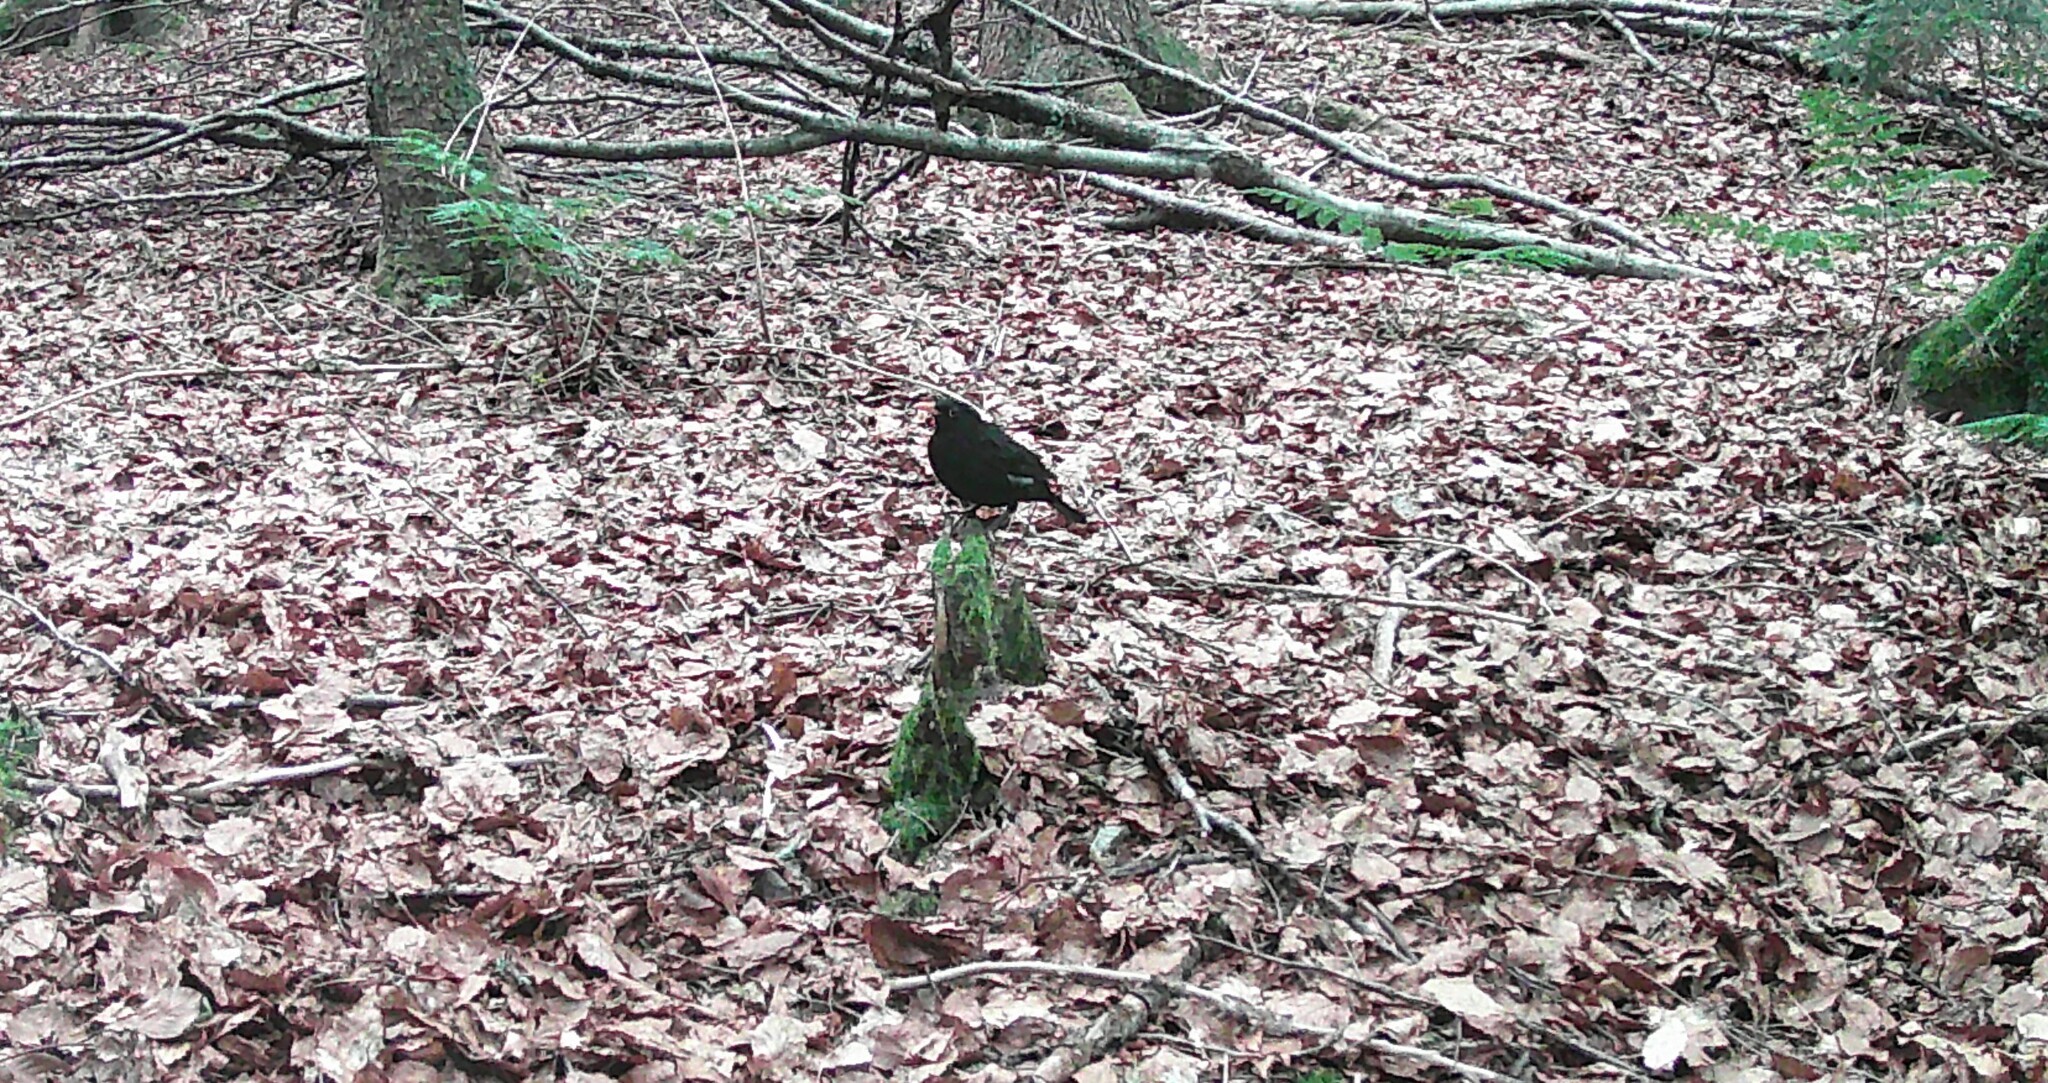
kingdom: Animalia
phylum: Chordata
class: Aves
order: Passeriformes
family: Turdidae
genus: Turdus
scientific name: Turdus merula
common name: Common blackbird
